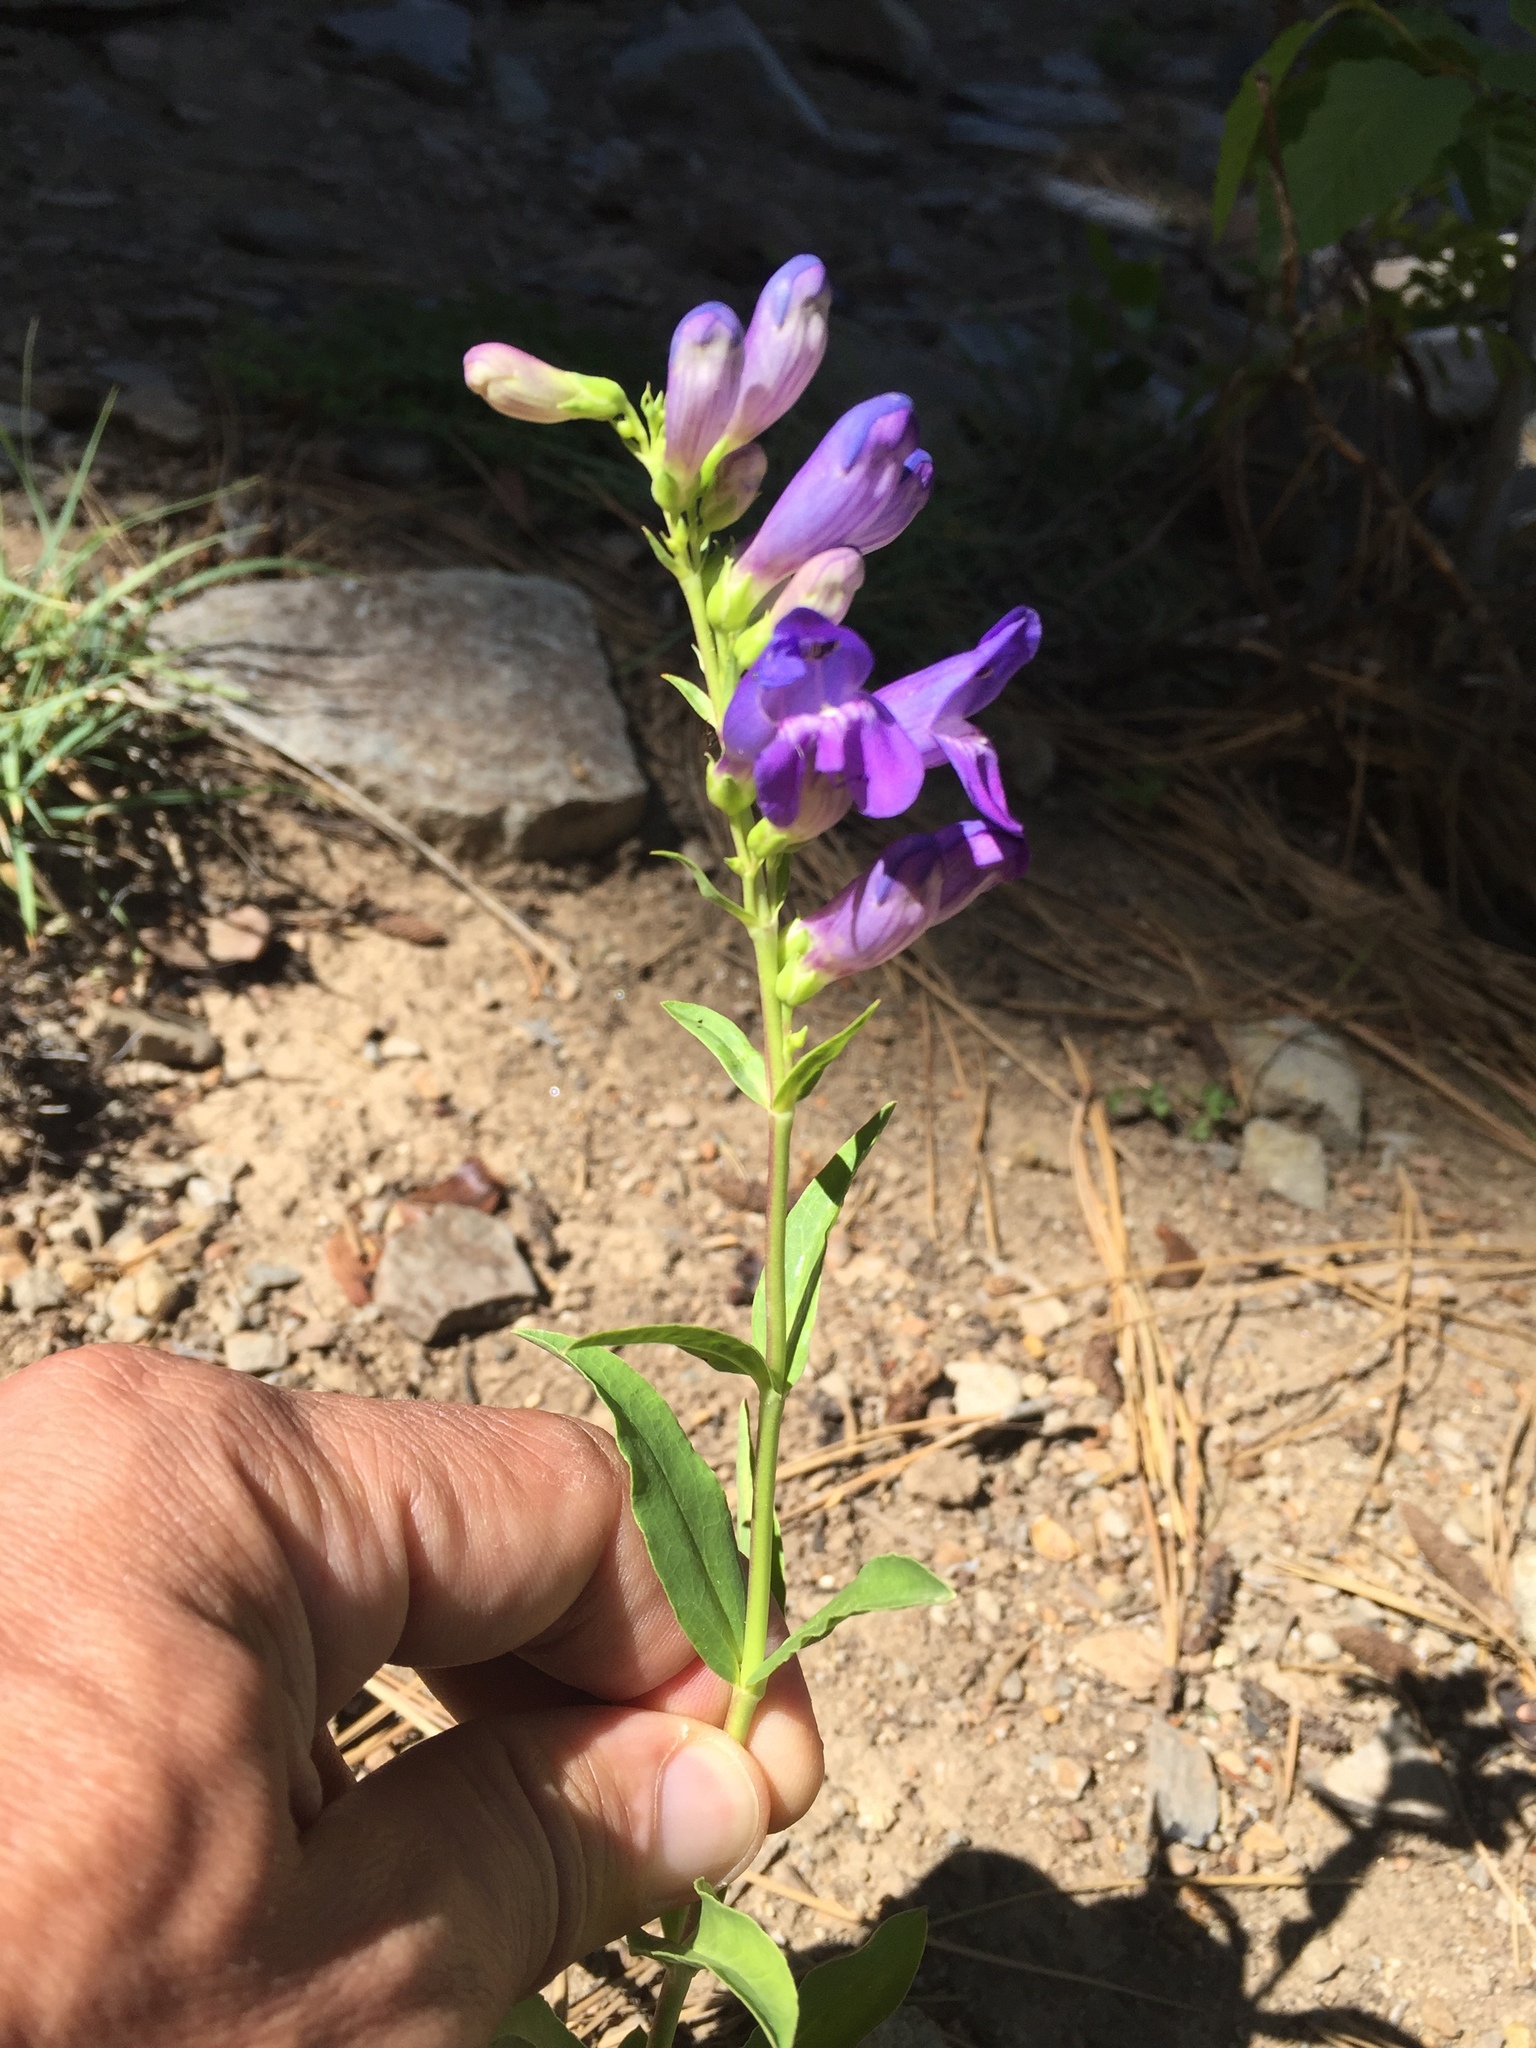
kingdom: Plantae
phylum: Tracheophyta
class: Magnoliopsida
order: Lamiales
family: Plantaginaceae
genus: Penstemon
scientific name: Penstemon strictus
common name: Rocky mountain penstemon
